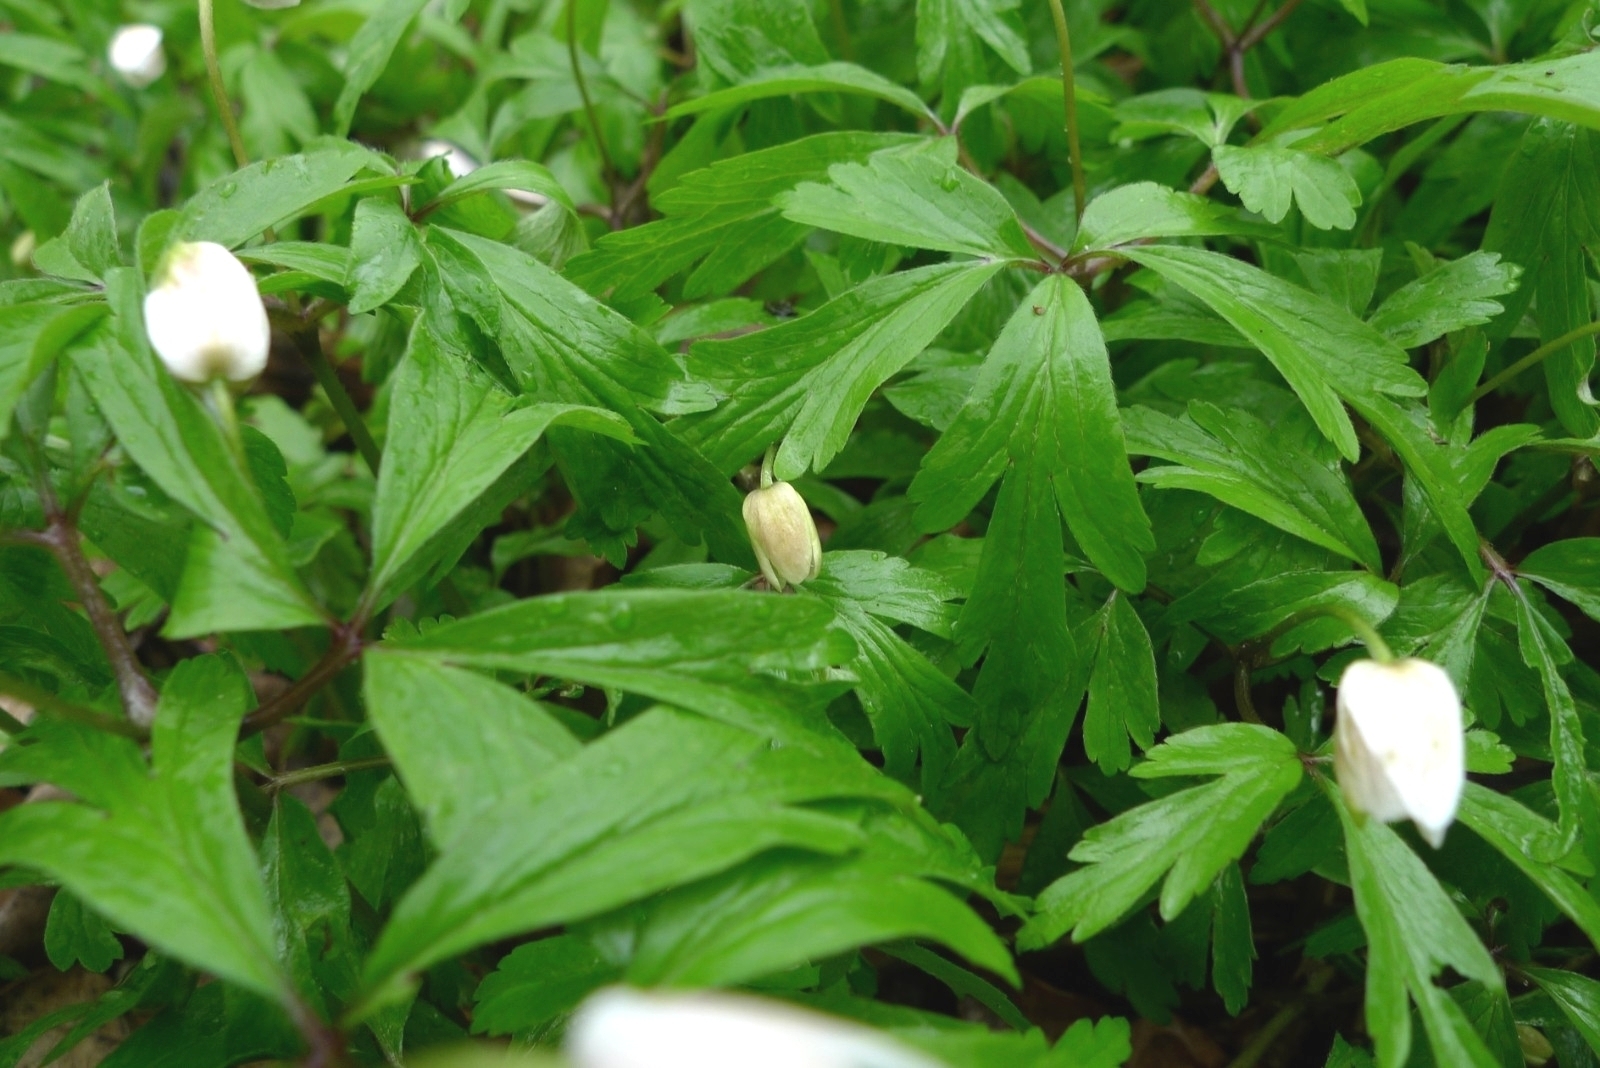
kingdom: Plantae
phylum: Tracheophyta
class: Magnoliopsida
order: Ranunculales
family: Ranunculaceae
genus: Anemone
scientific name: Anemone nemorosa
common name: Wood anemone
